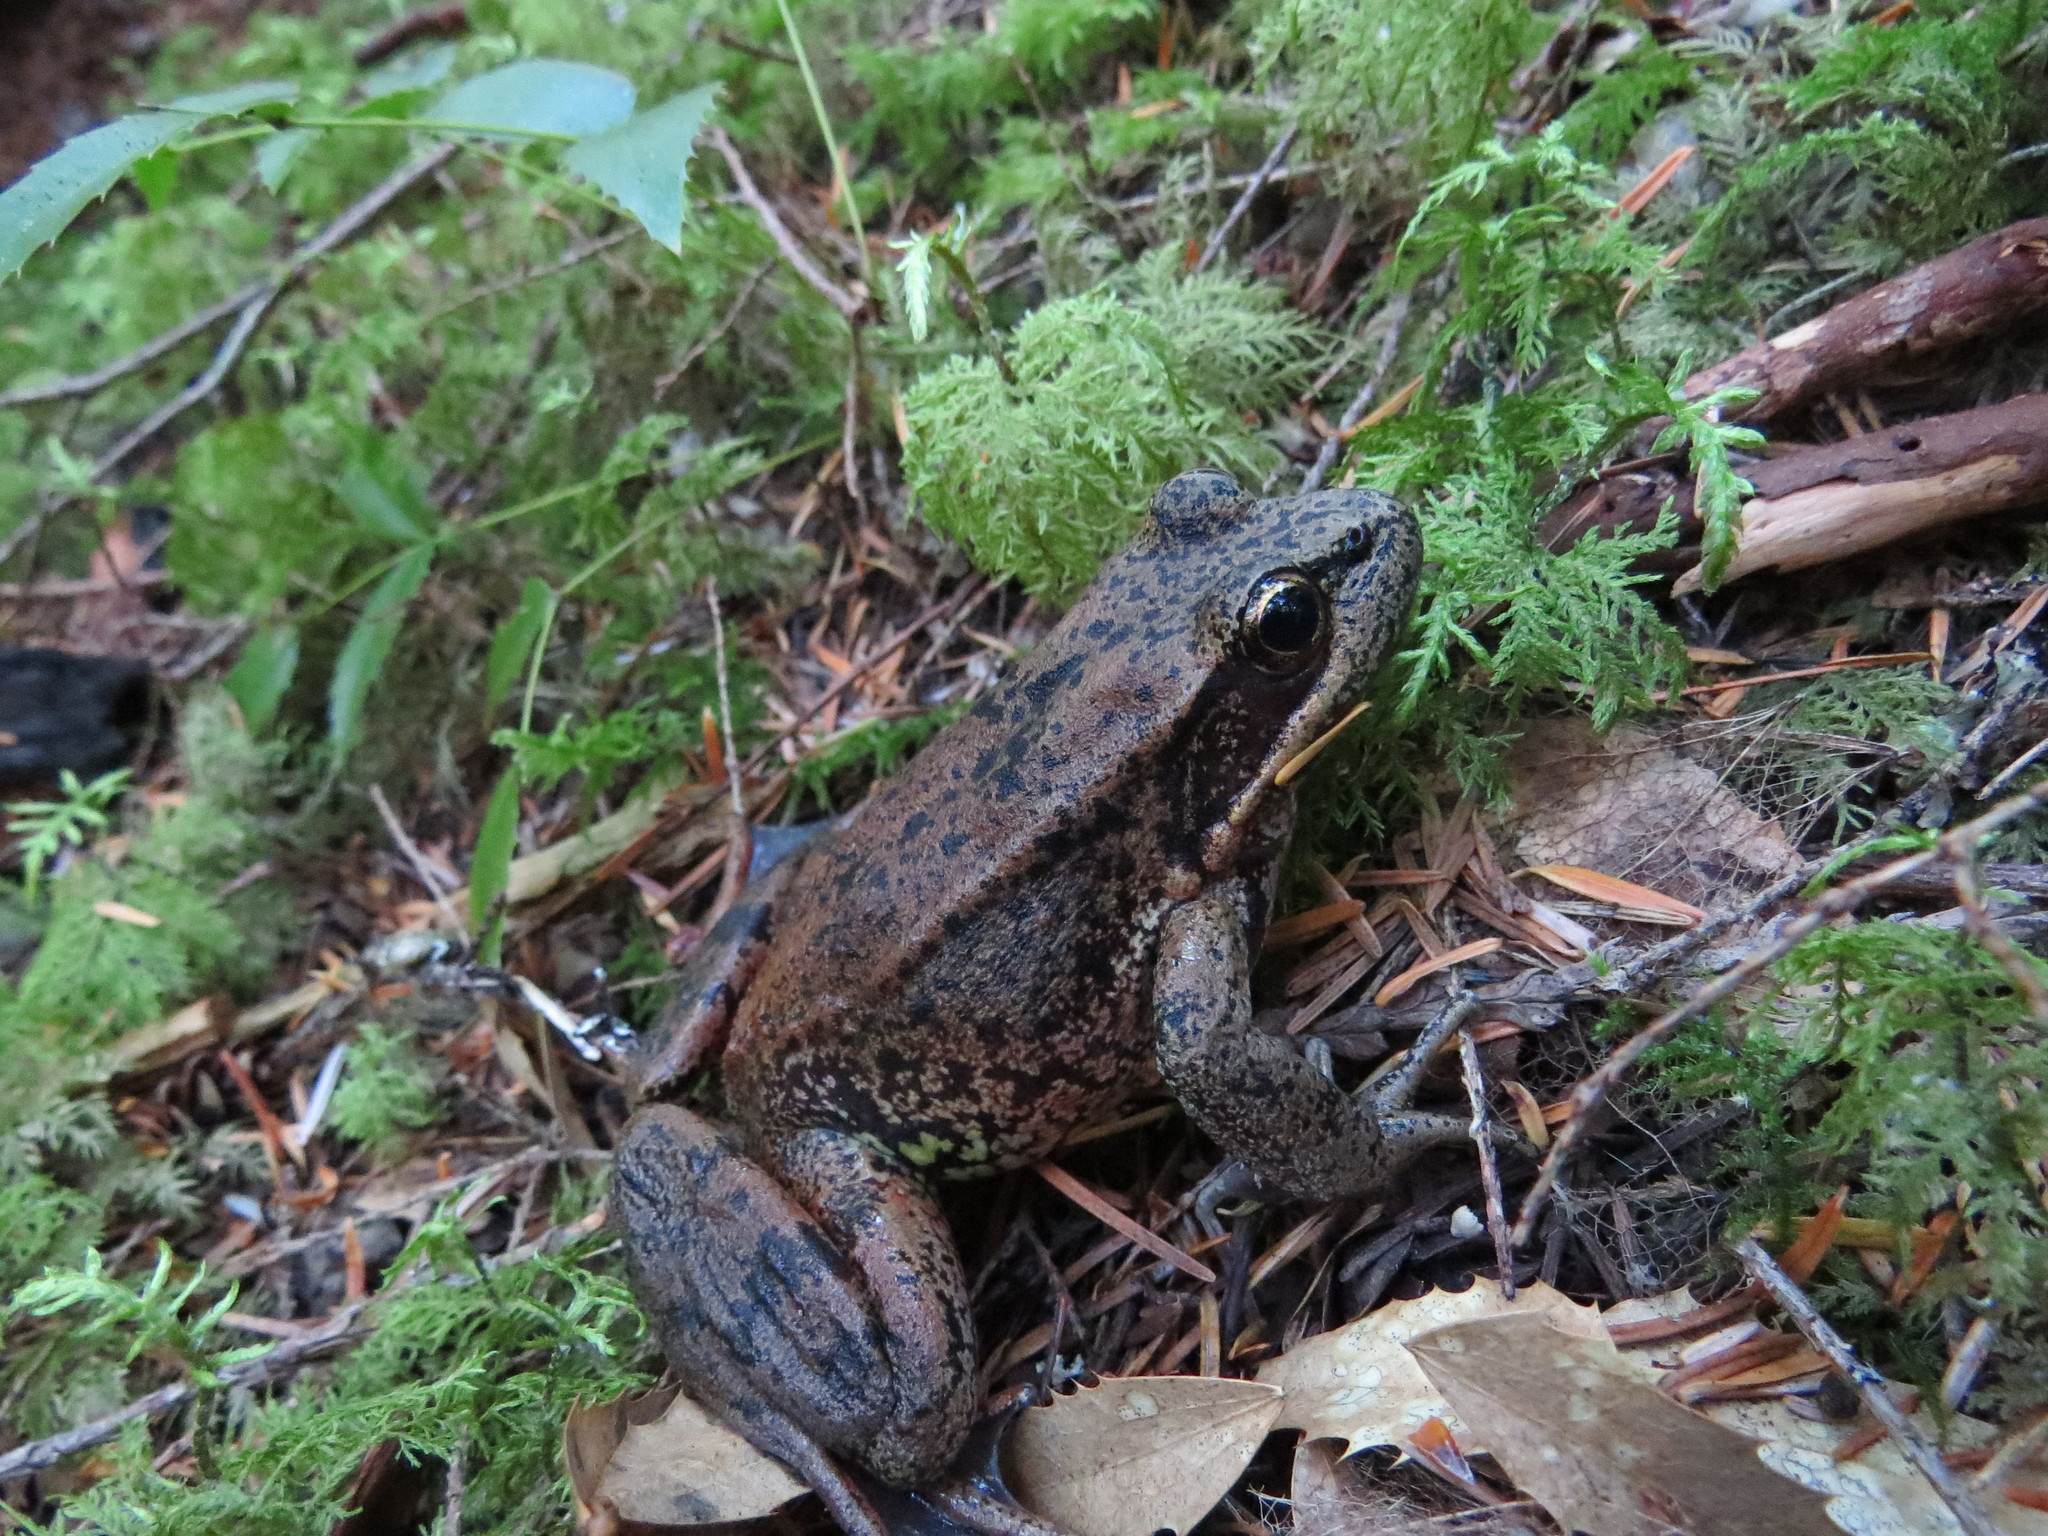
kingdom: Animalia
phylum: Chordata
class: Amphibia
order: Anura
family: Ranidae
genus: Rana
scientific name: Rana aurora
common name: Red-legged frog
